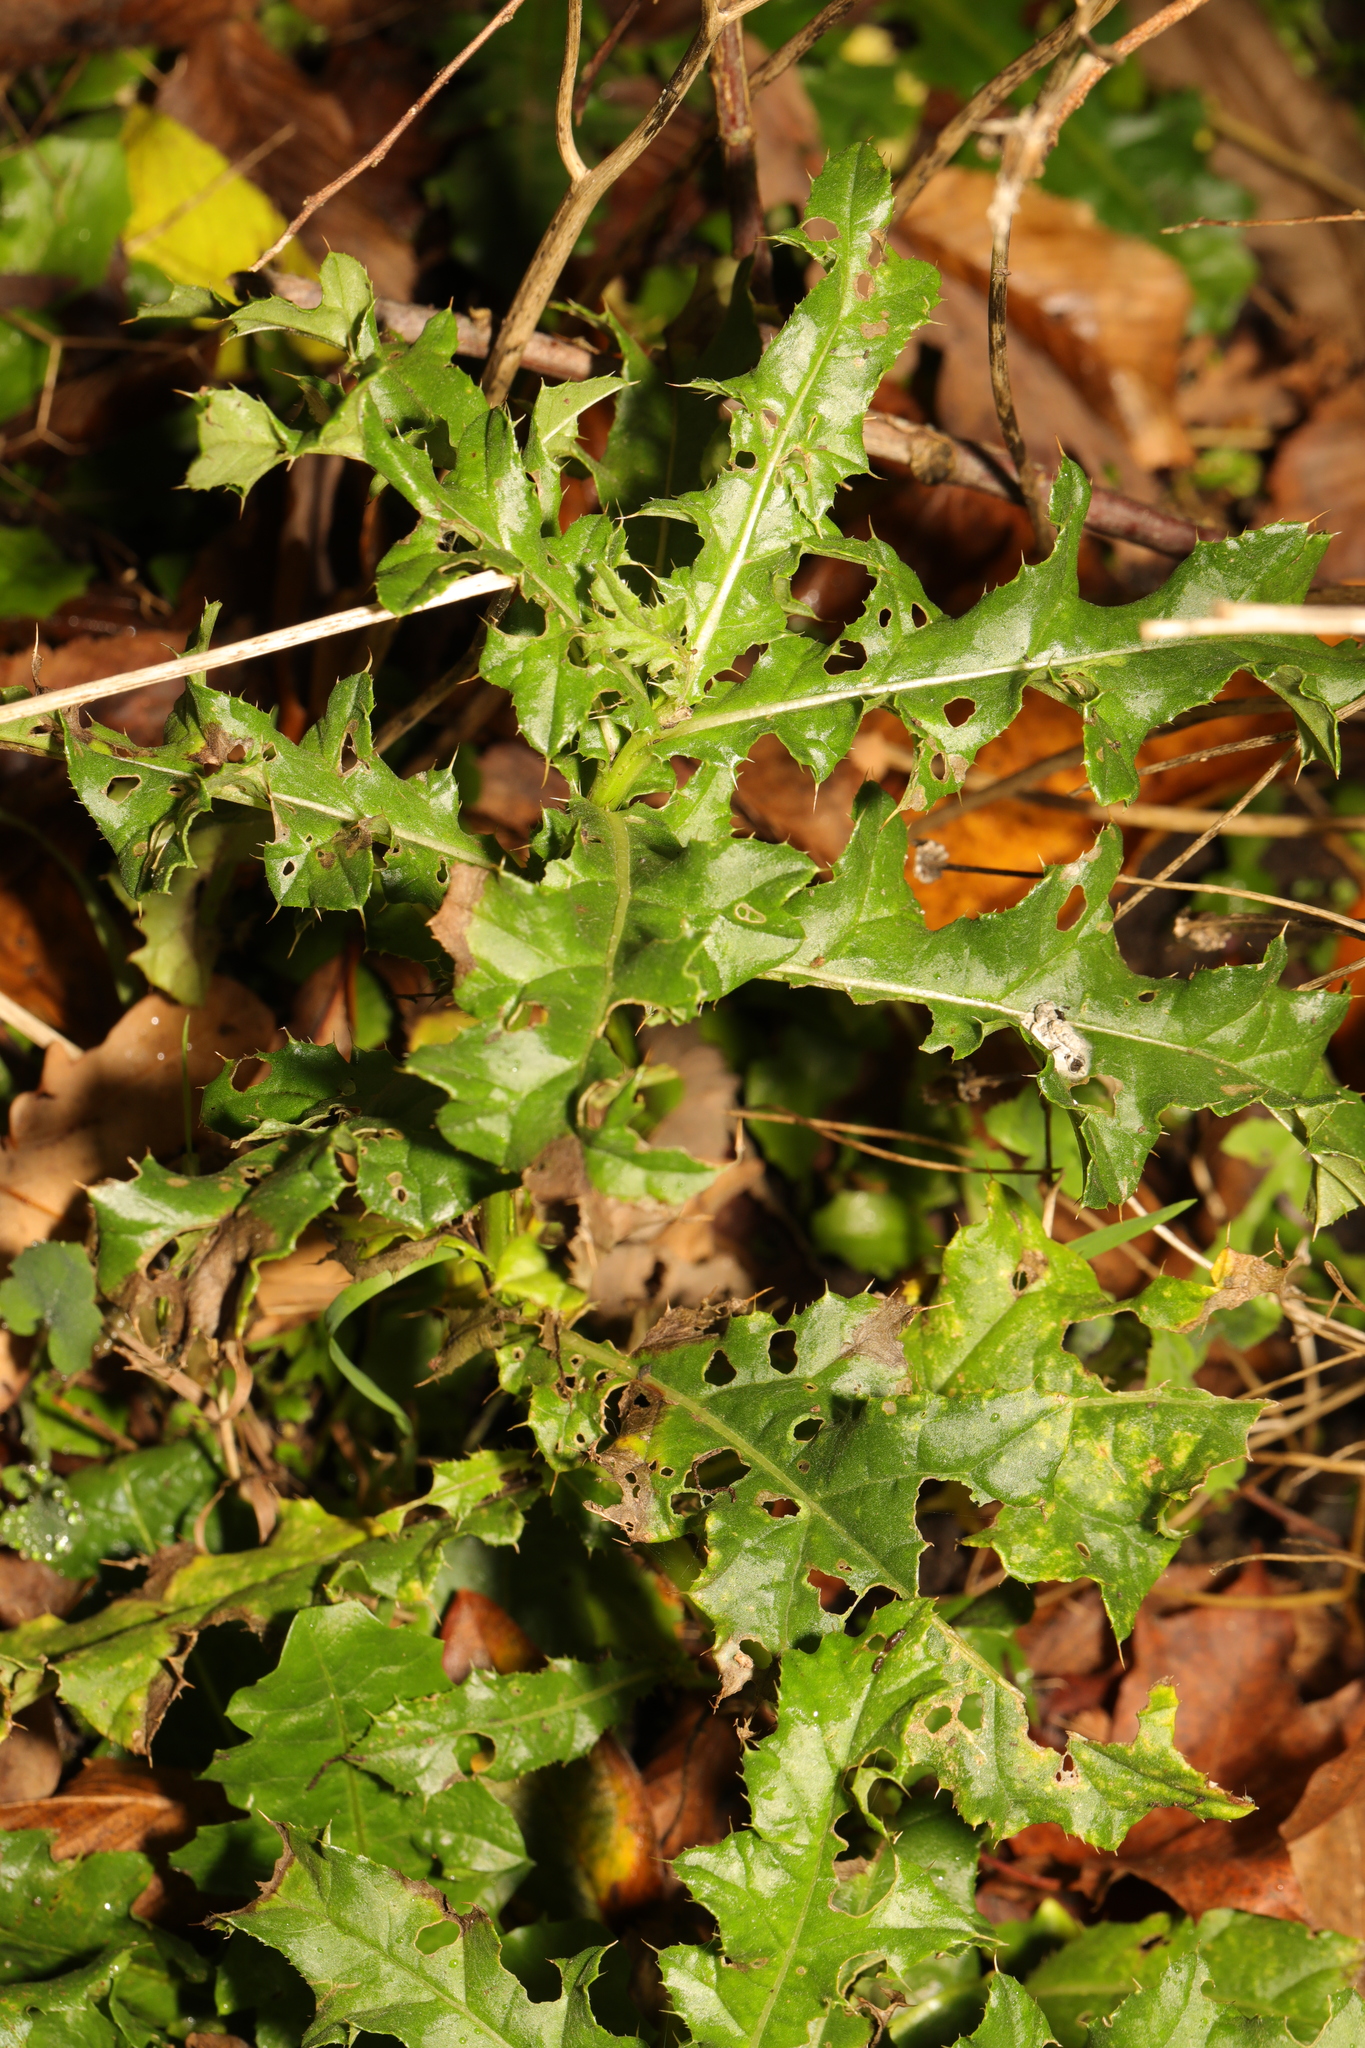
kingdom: Plantae
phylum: Tracheophyta
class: Magnoliopsida
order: Asterales
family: Asteraceae
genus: Cirsium
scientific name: Cirsium arvense
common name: Creeping thistle
